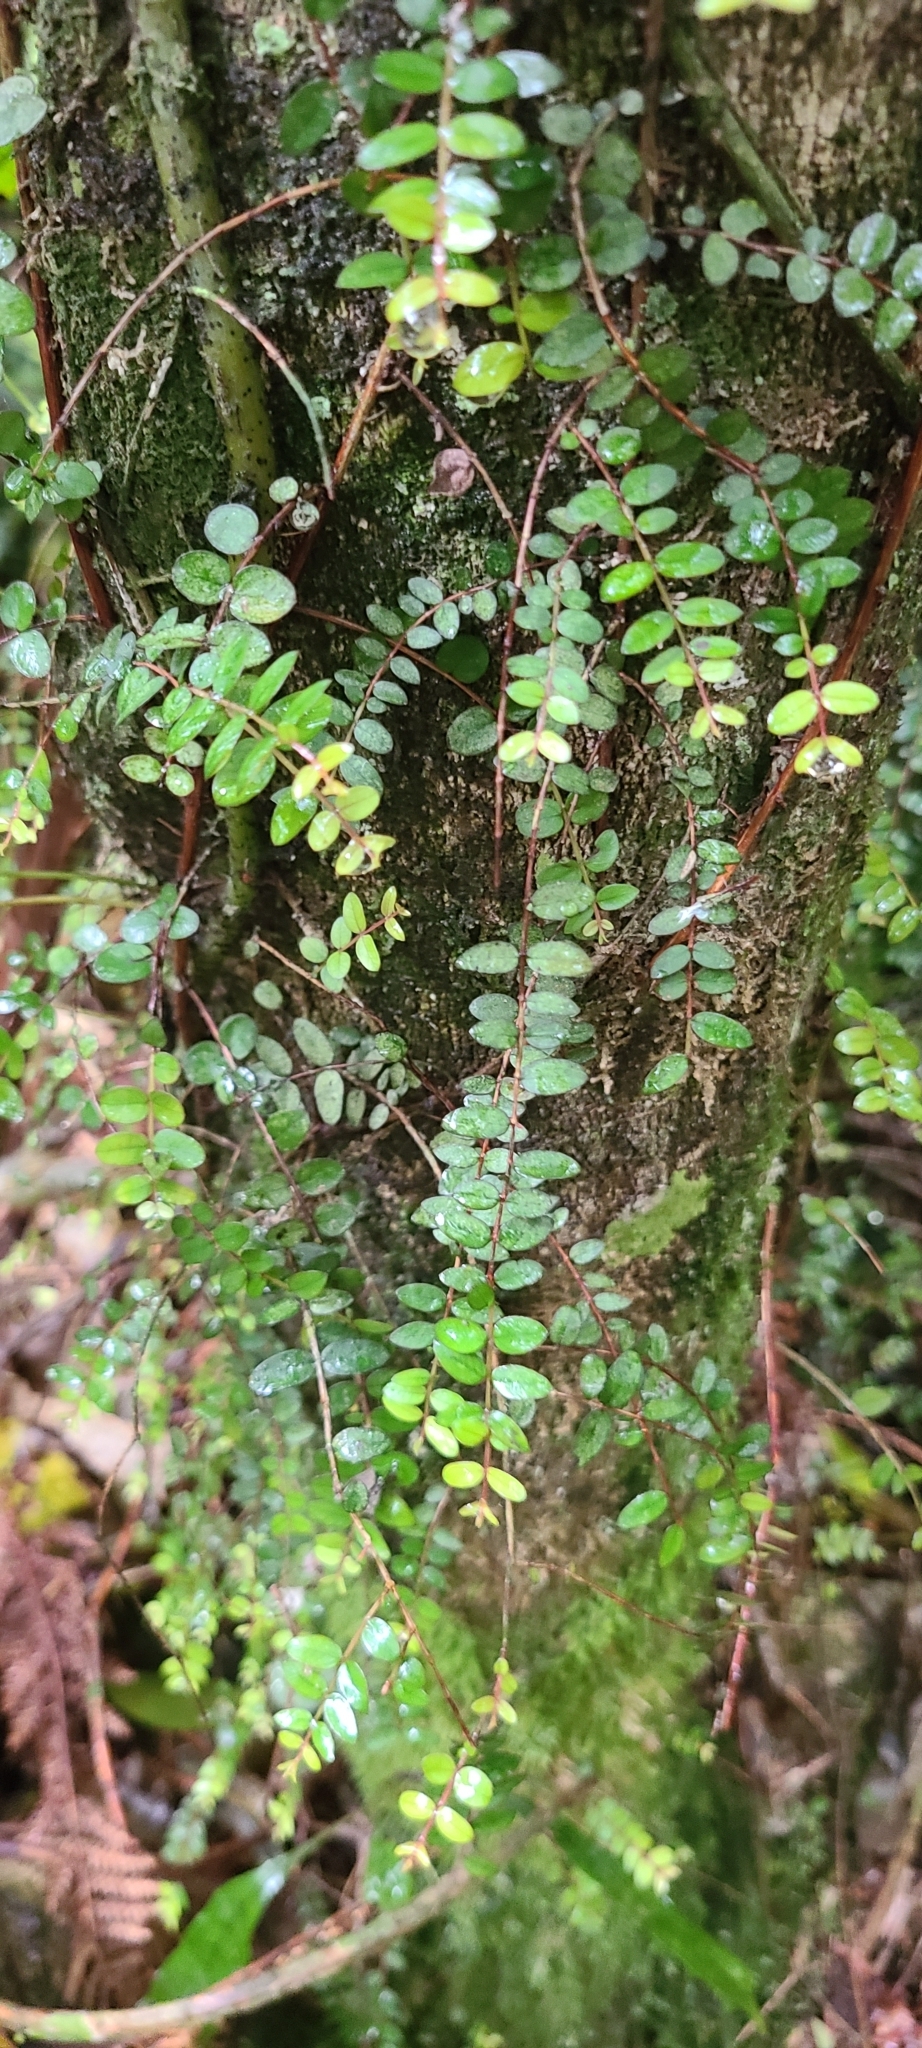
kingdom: Plantae
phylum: Tracheophyta
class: Magnoliopsida
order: Myrtales
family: Myrtaceae
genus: Metrosideros
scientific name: Metrosideros diffusa
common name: Small ratavine
